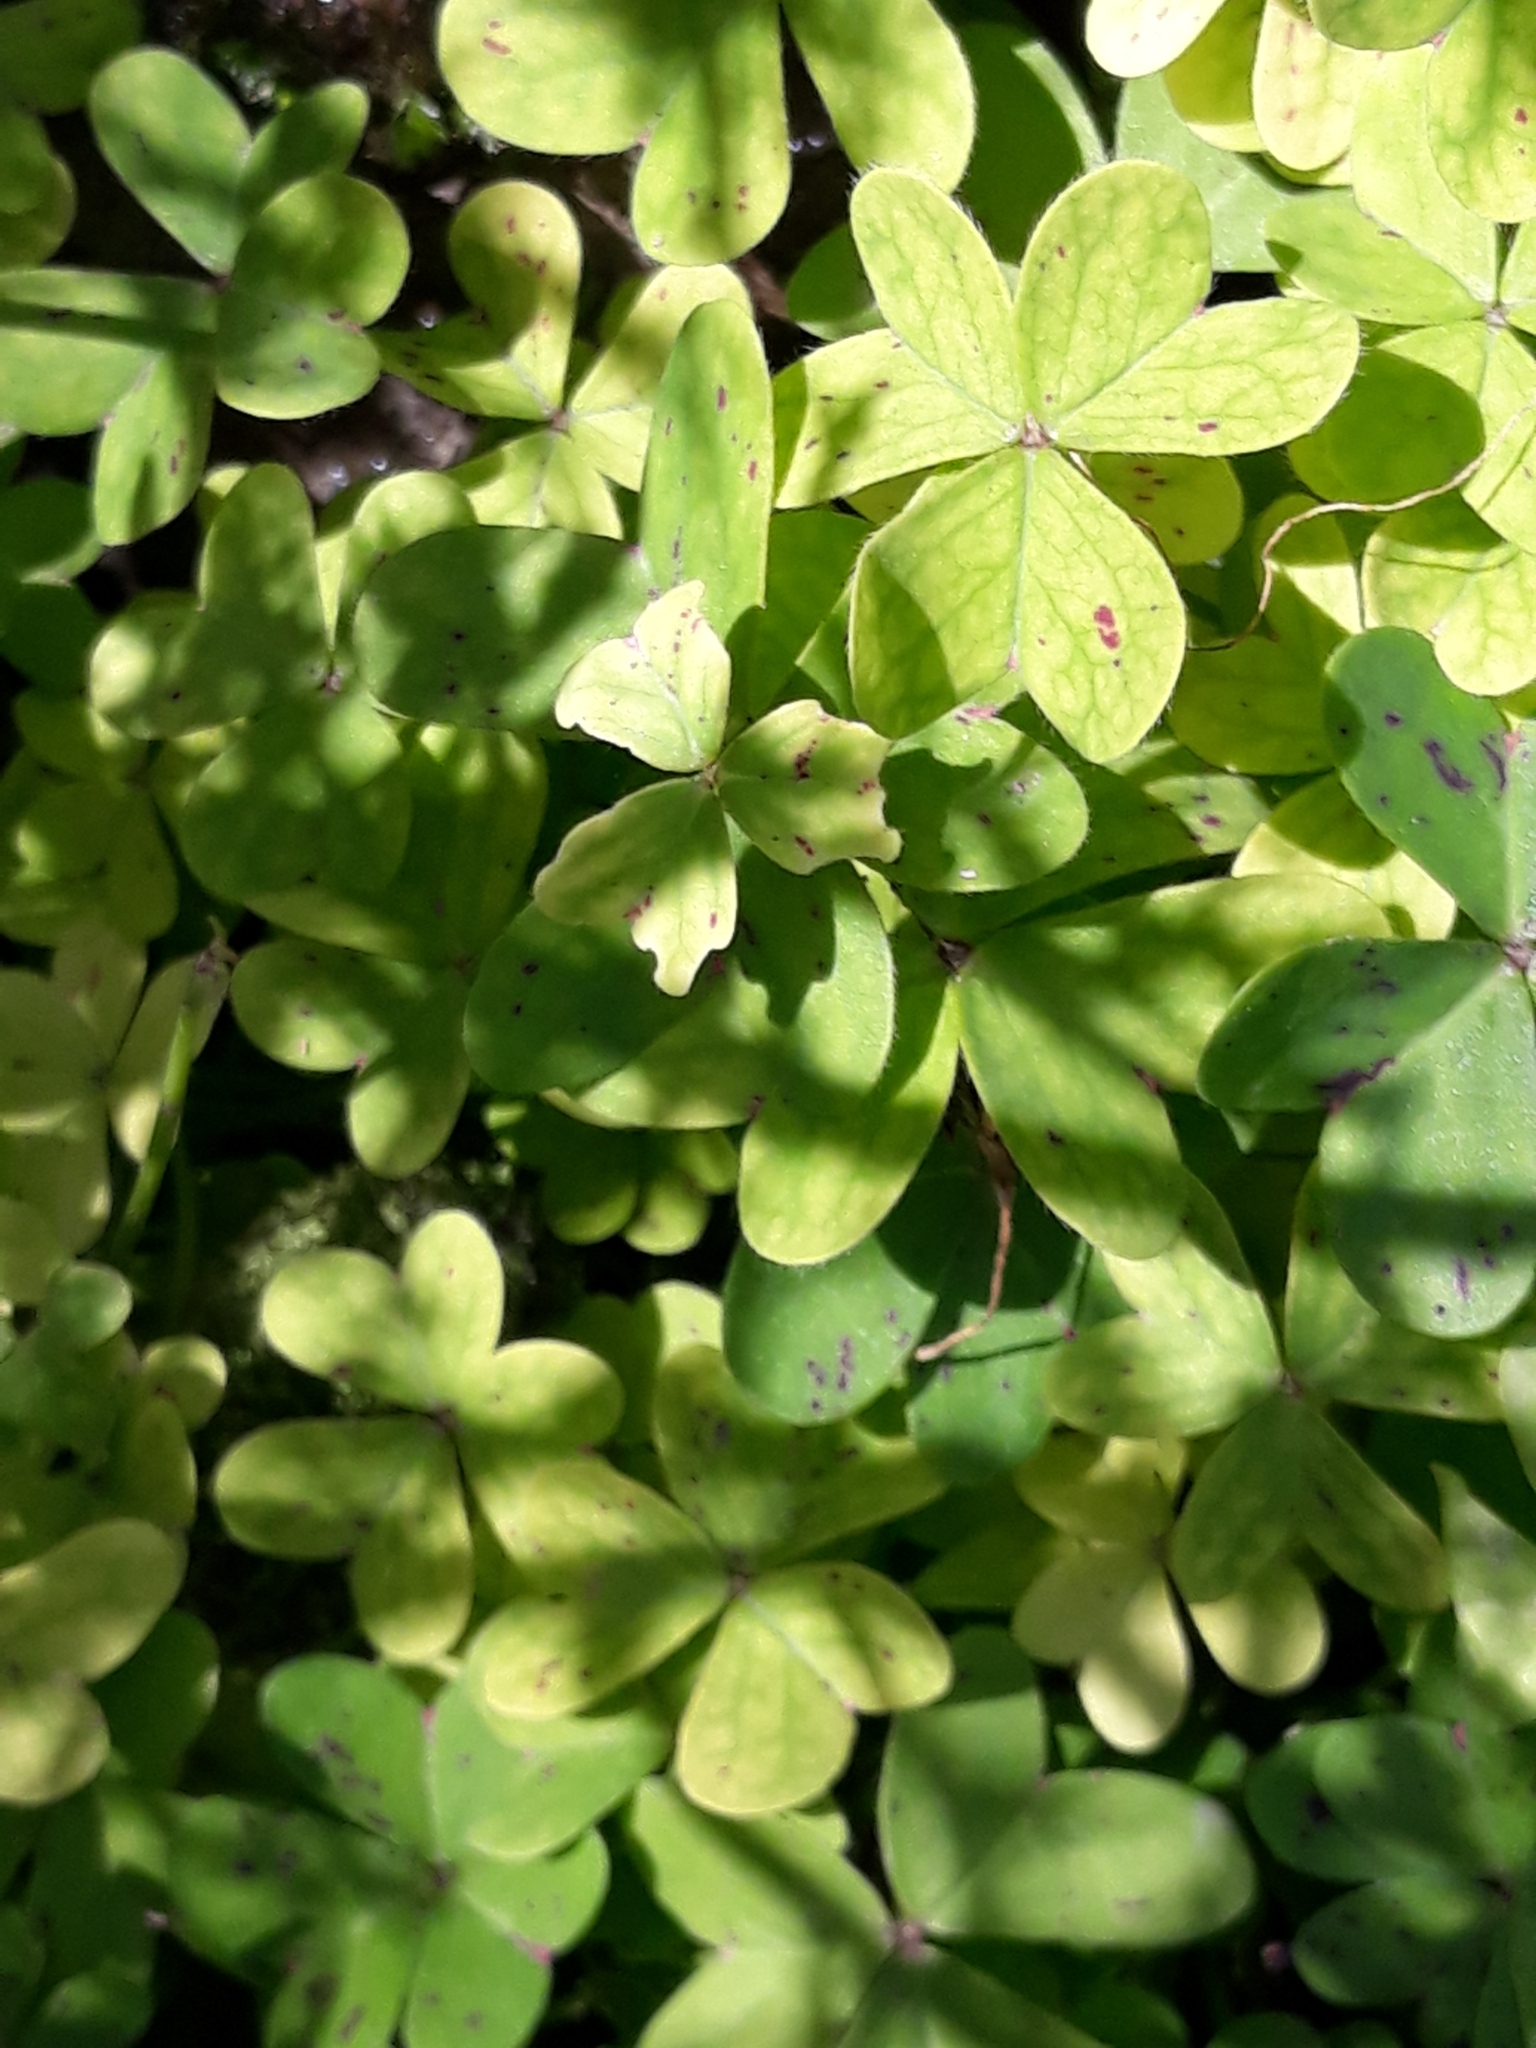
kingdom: Plantae
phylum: Tracheophyta
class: Magnoliopsida
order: Oxalidales
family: Oxalidaceae
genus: Oxalis
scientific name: Oxalis pes-caprae
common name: Bermuda-buttercup
